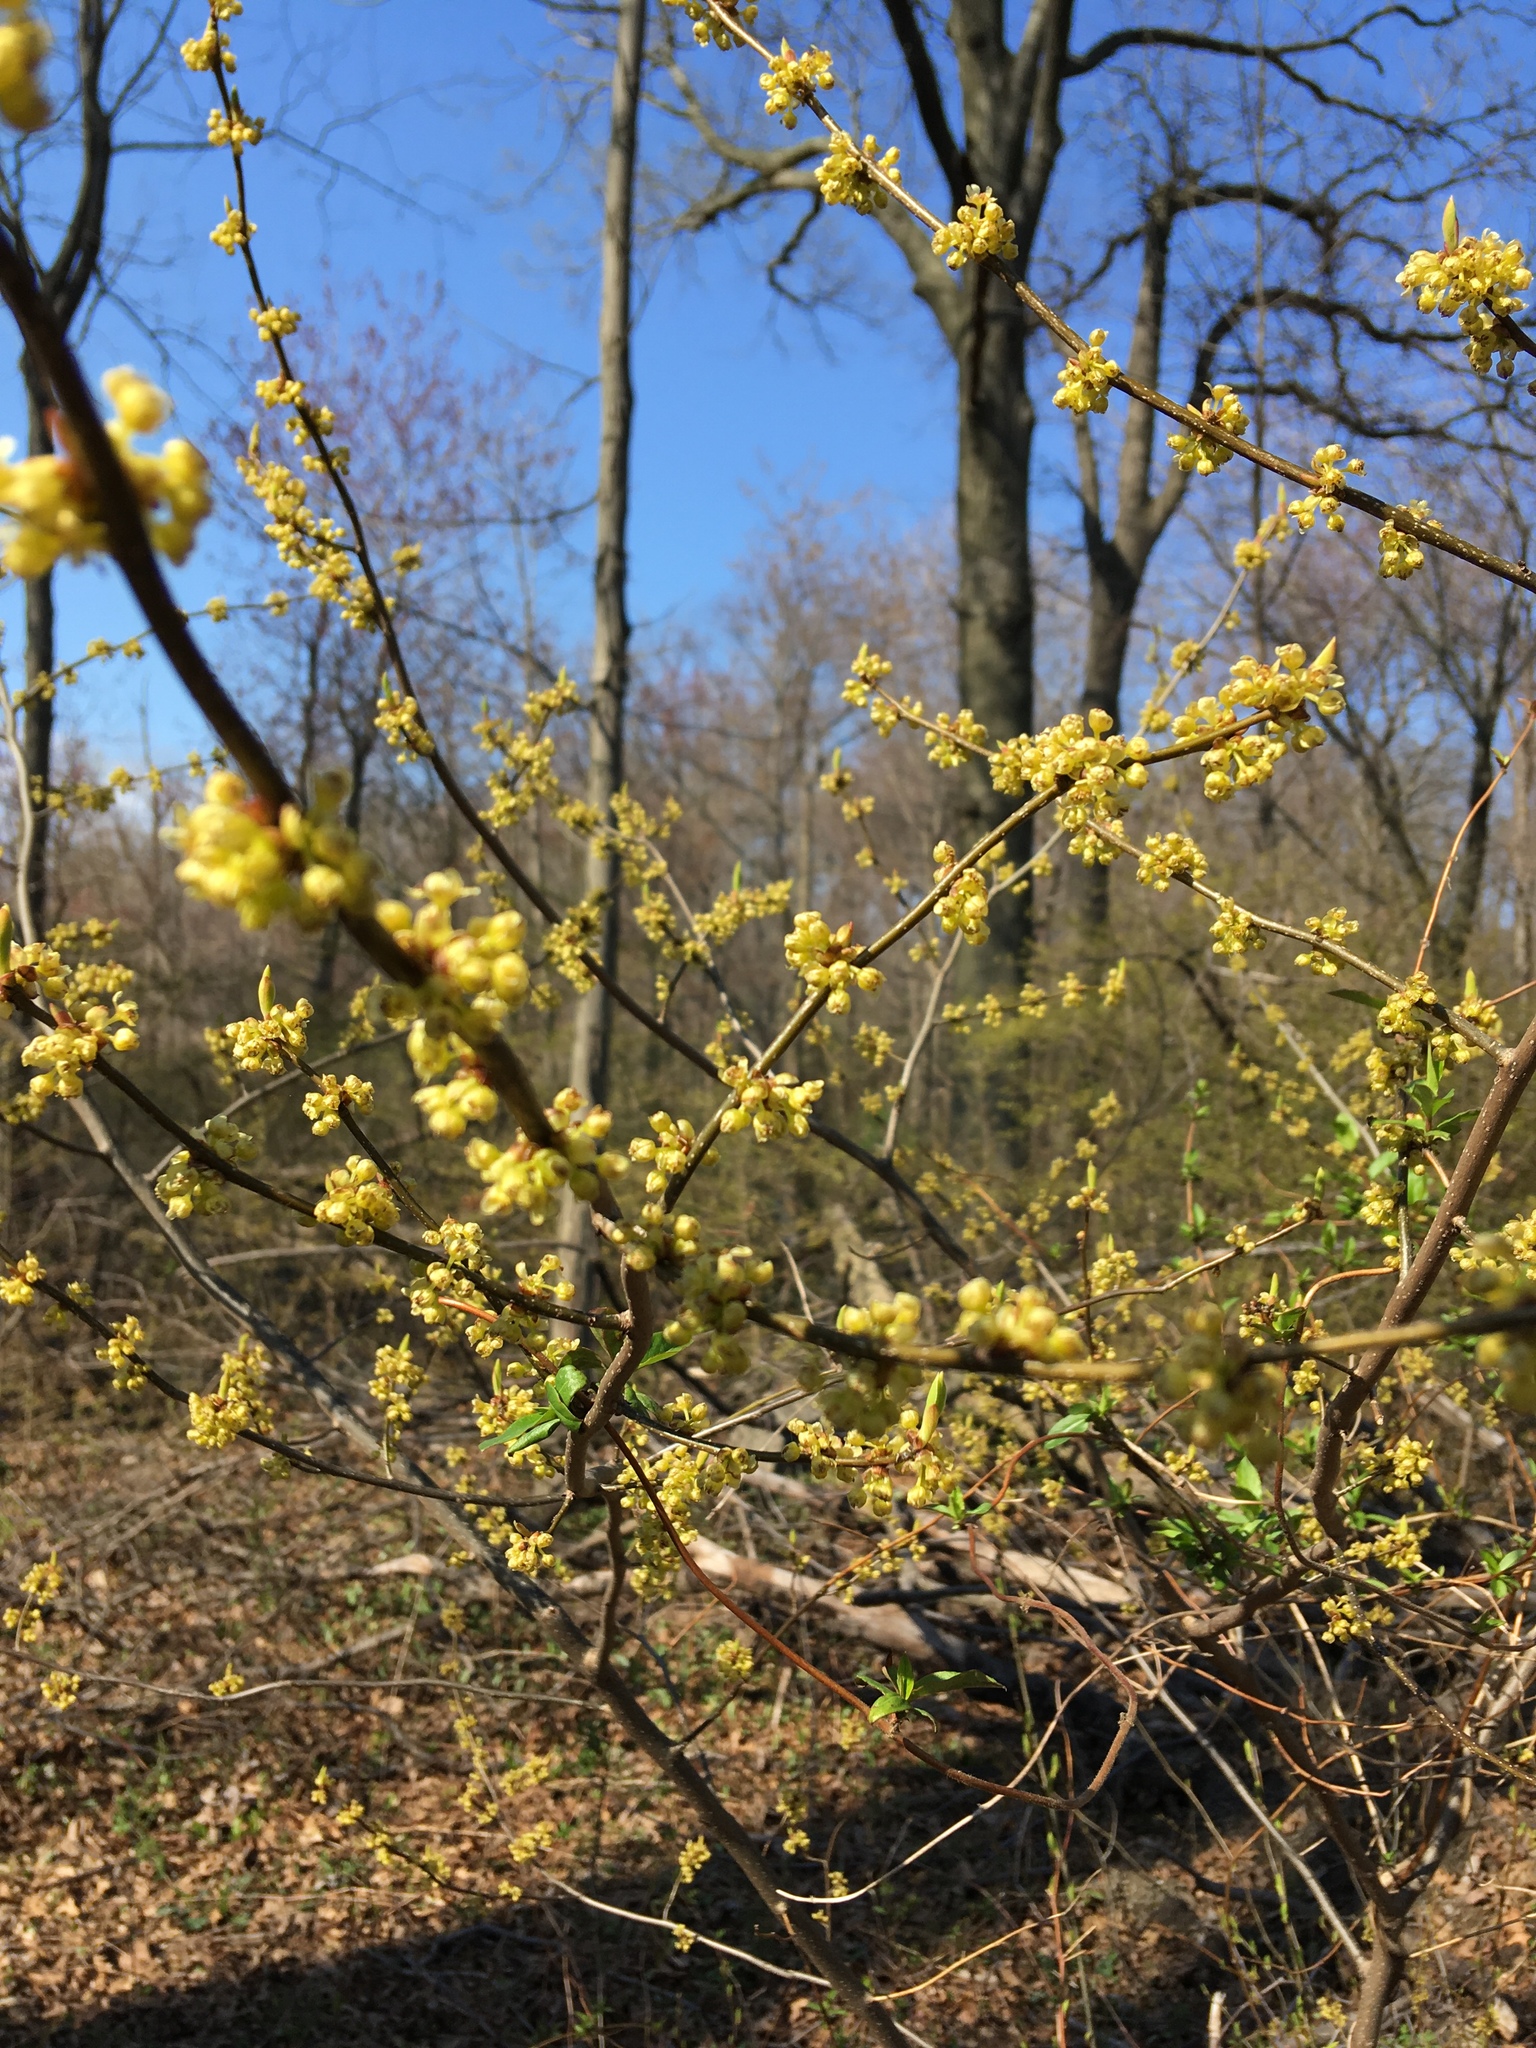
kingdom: Plantae
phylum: Tracheophyta
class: Magnoliopsida
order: Laurales
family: Lauraceae
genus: Lindera
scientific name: Lindera benzoin
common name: Spicebush
